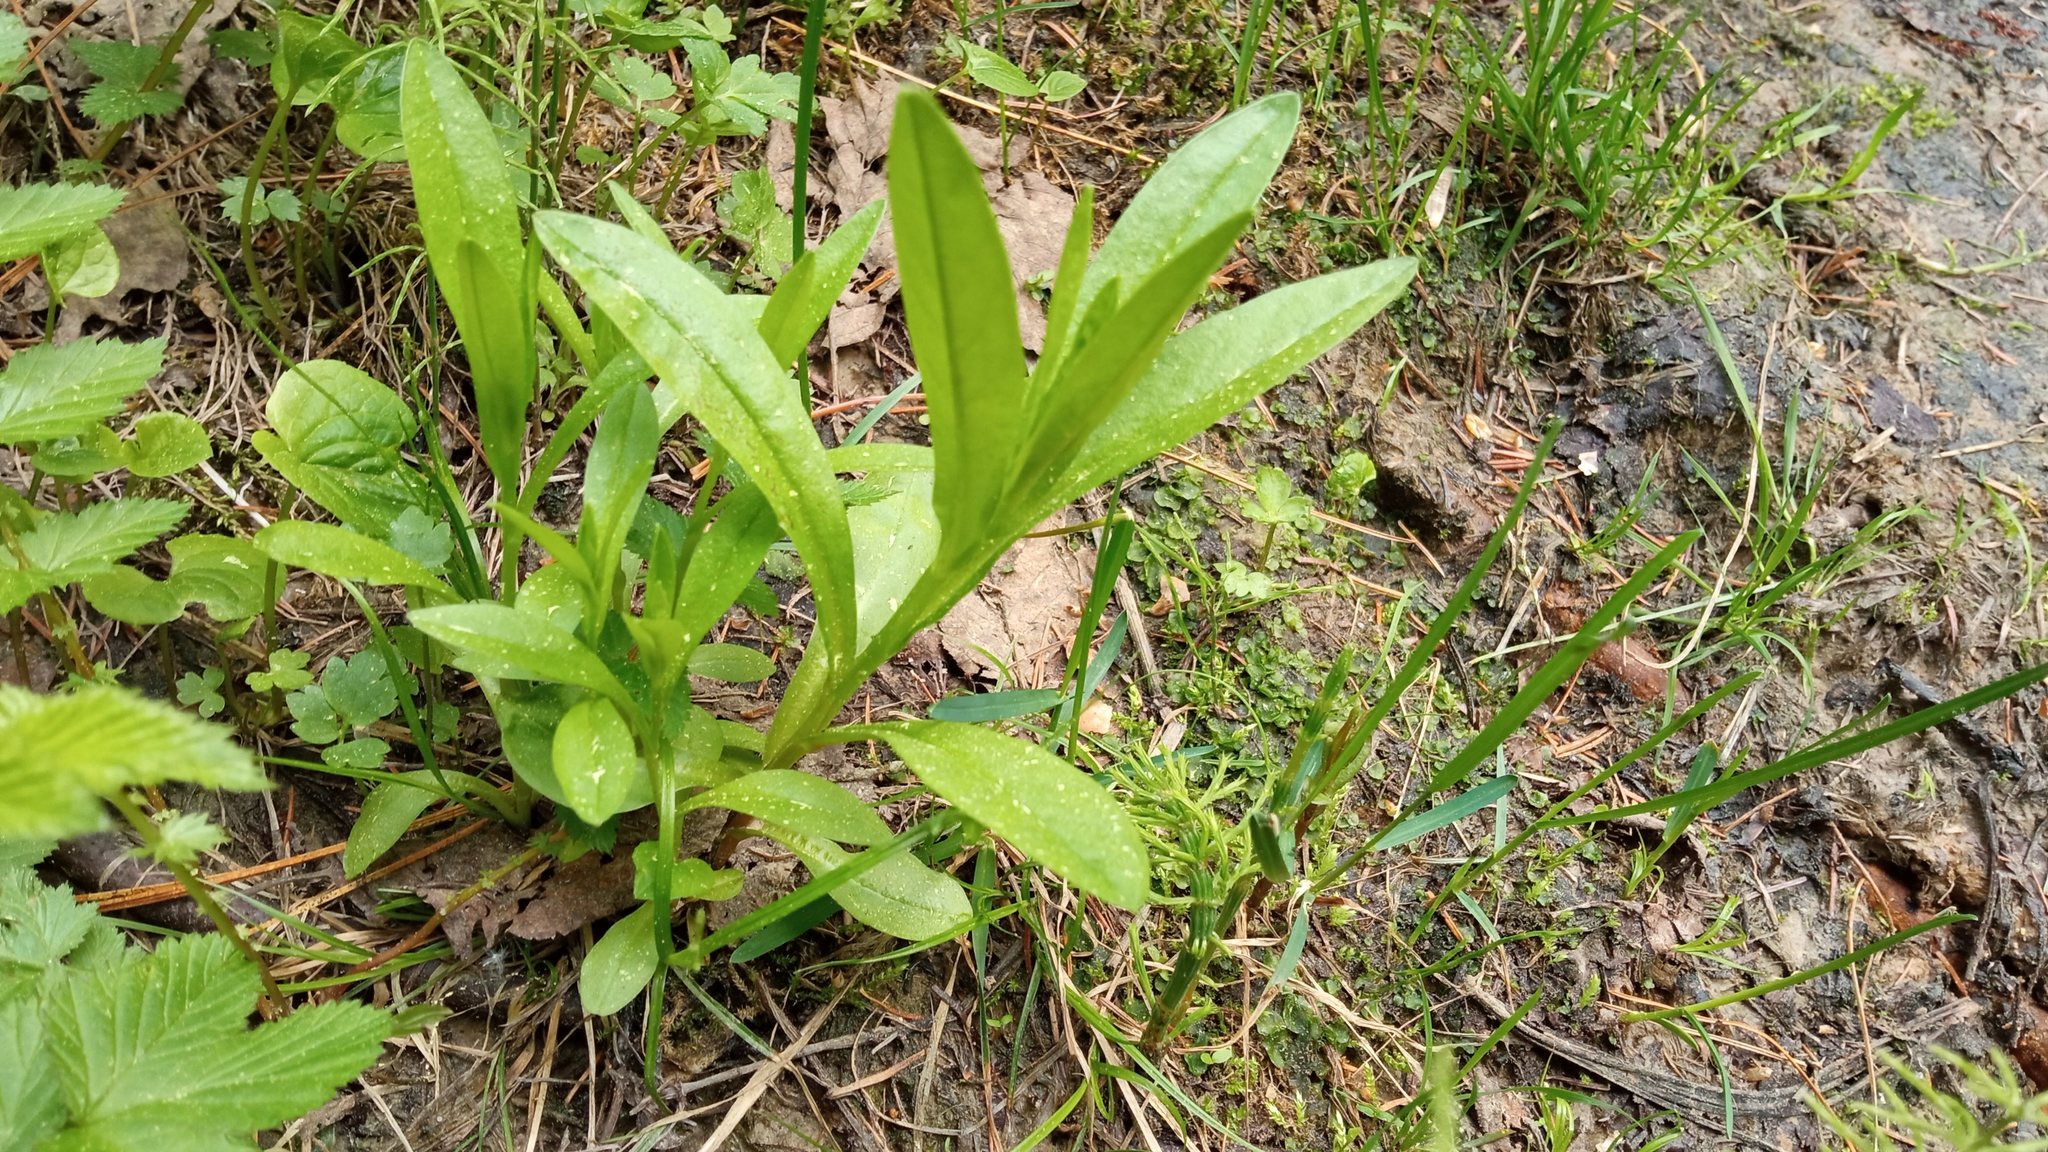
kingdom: Plantae
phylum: Tracheophyta
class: Magnoliopsida
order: Boraginales
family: Boraginaceae
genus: Myosotis
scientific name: Myosotis scorpioides
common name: Water forget-me-not
